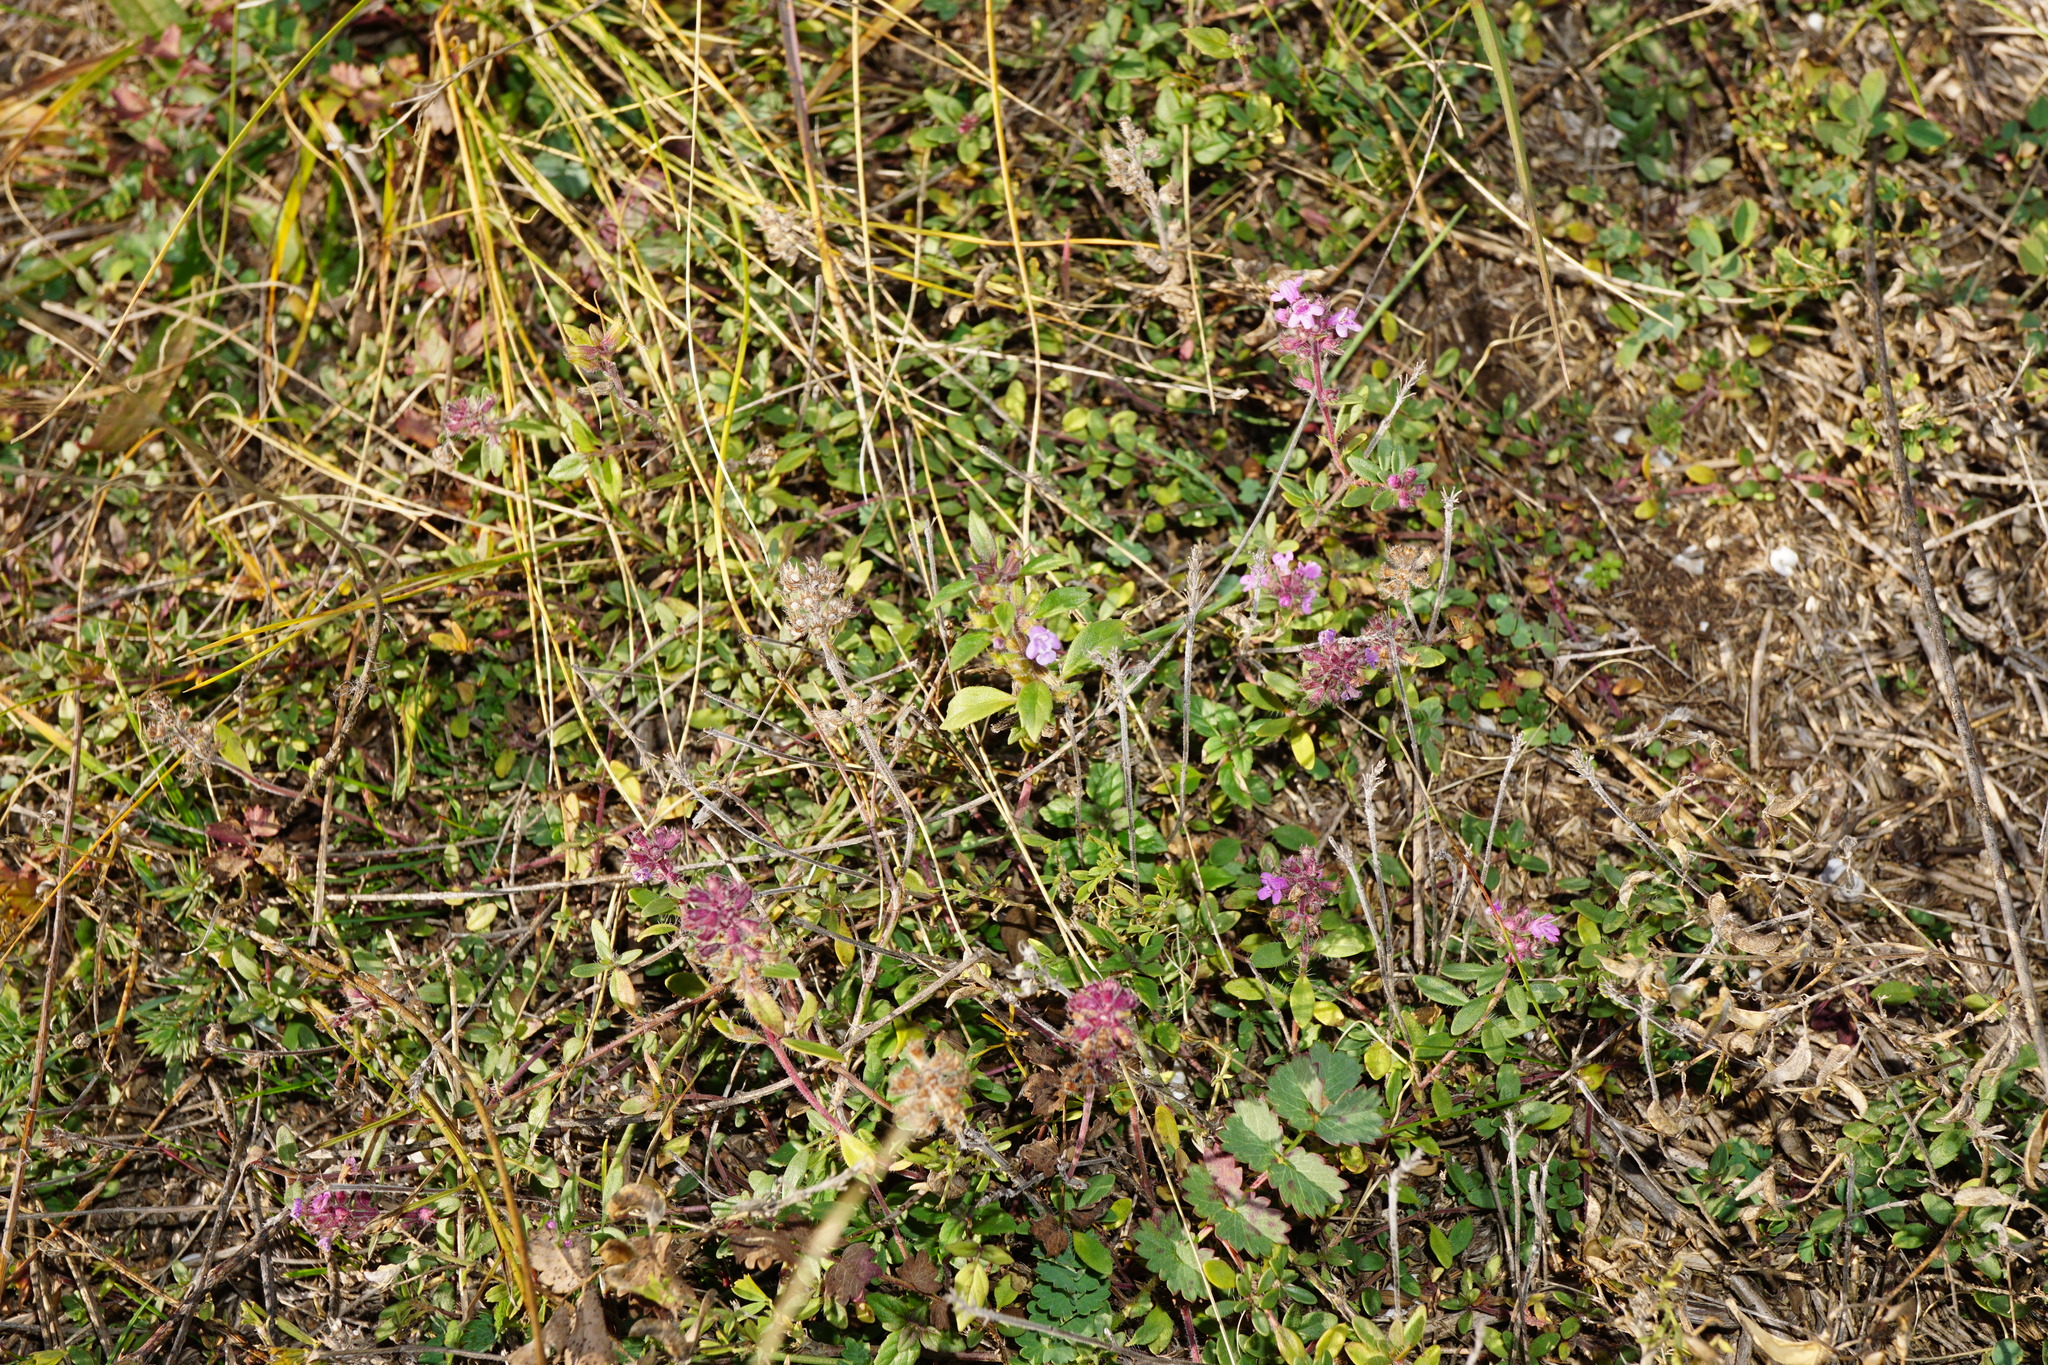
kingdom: Plantae
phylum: Tracheophyta
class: Magnoliopsida
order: Lamiales
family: Lamiaceae
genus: Clinopodium
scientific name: Clinopodium acinos
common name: Basil thyme
